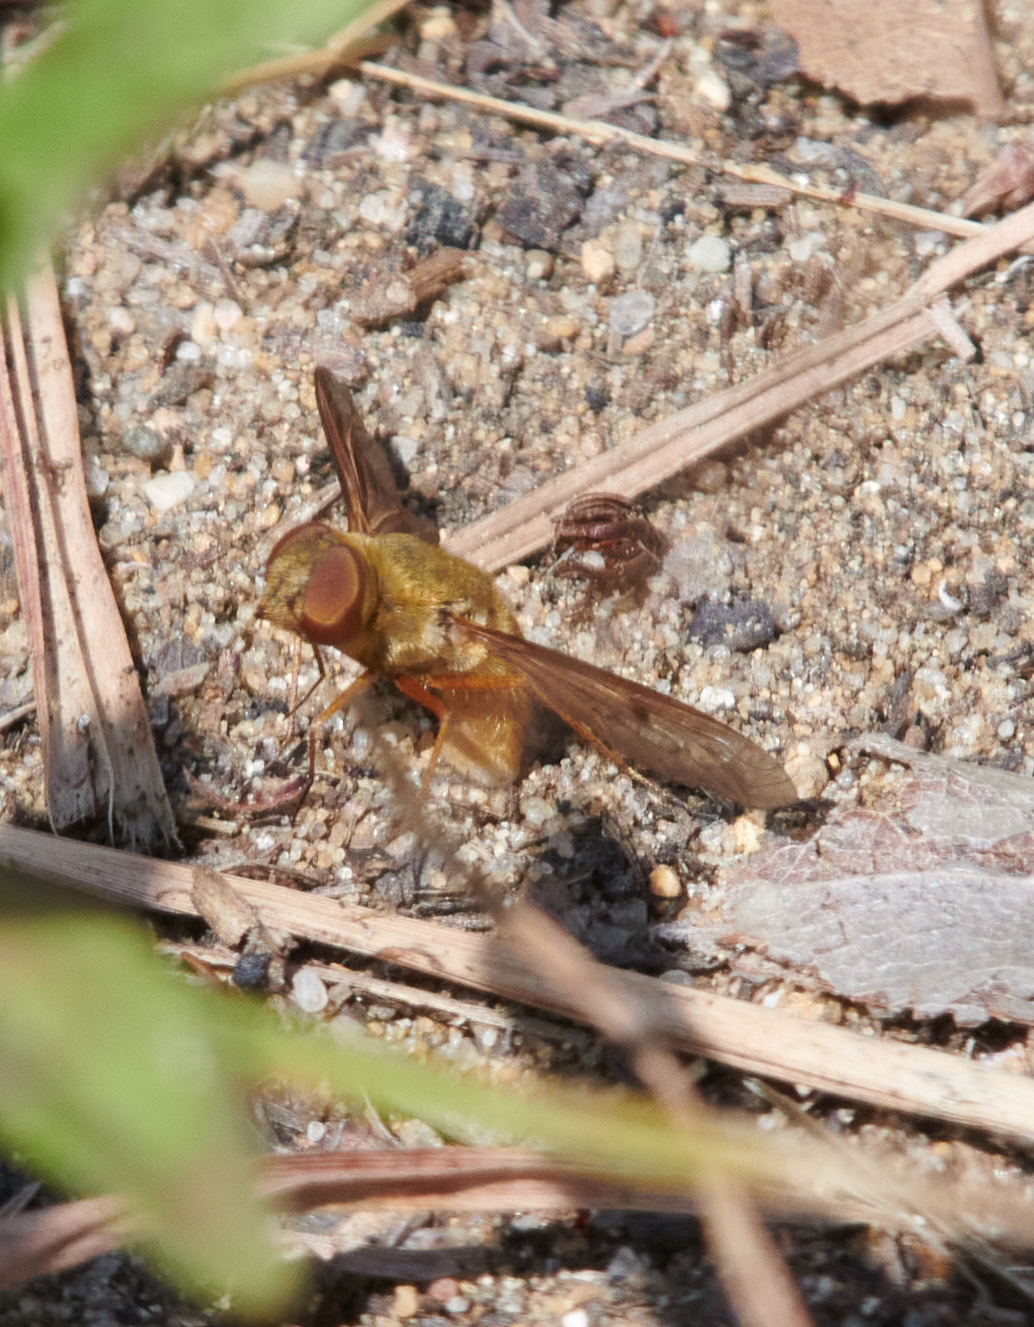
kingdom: Animalia
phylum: Arthropoda
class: Insecta
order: Diptera
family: Bombyliidae
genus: Chrysanthrax
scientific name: Chrysanthrax edititius
